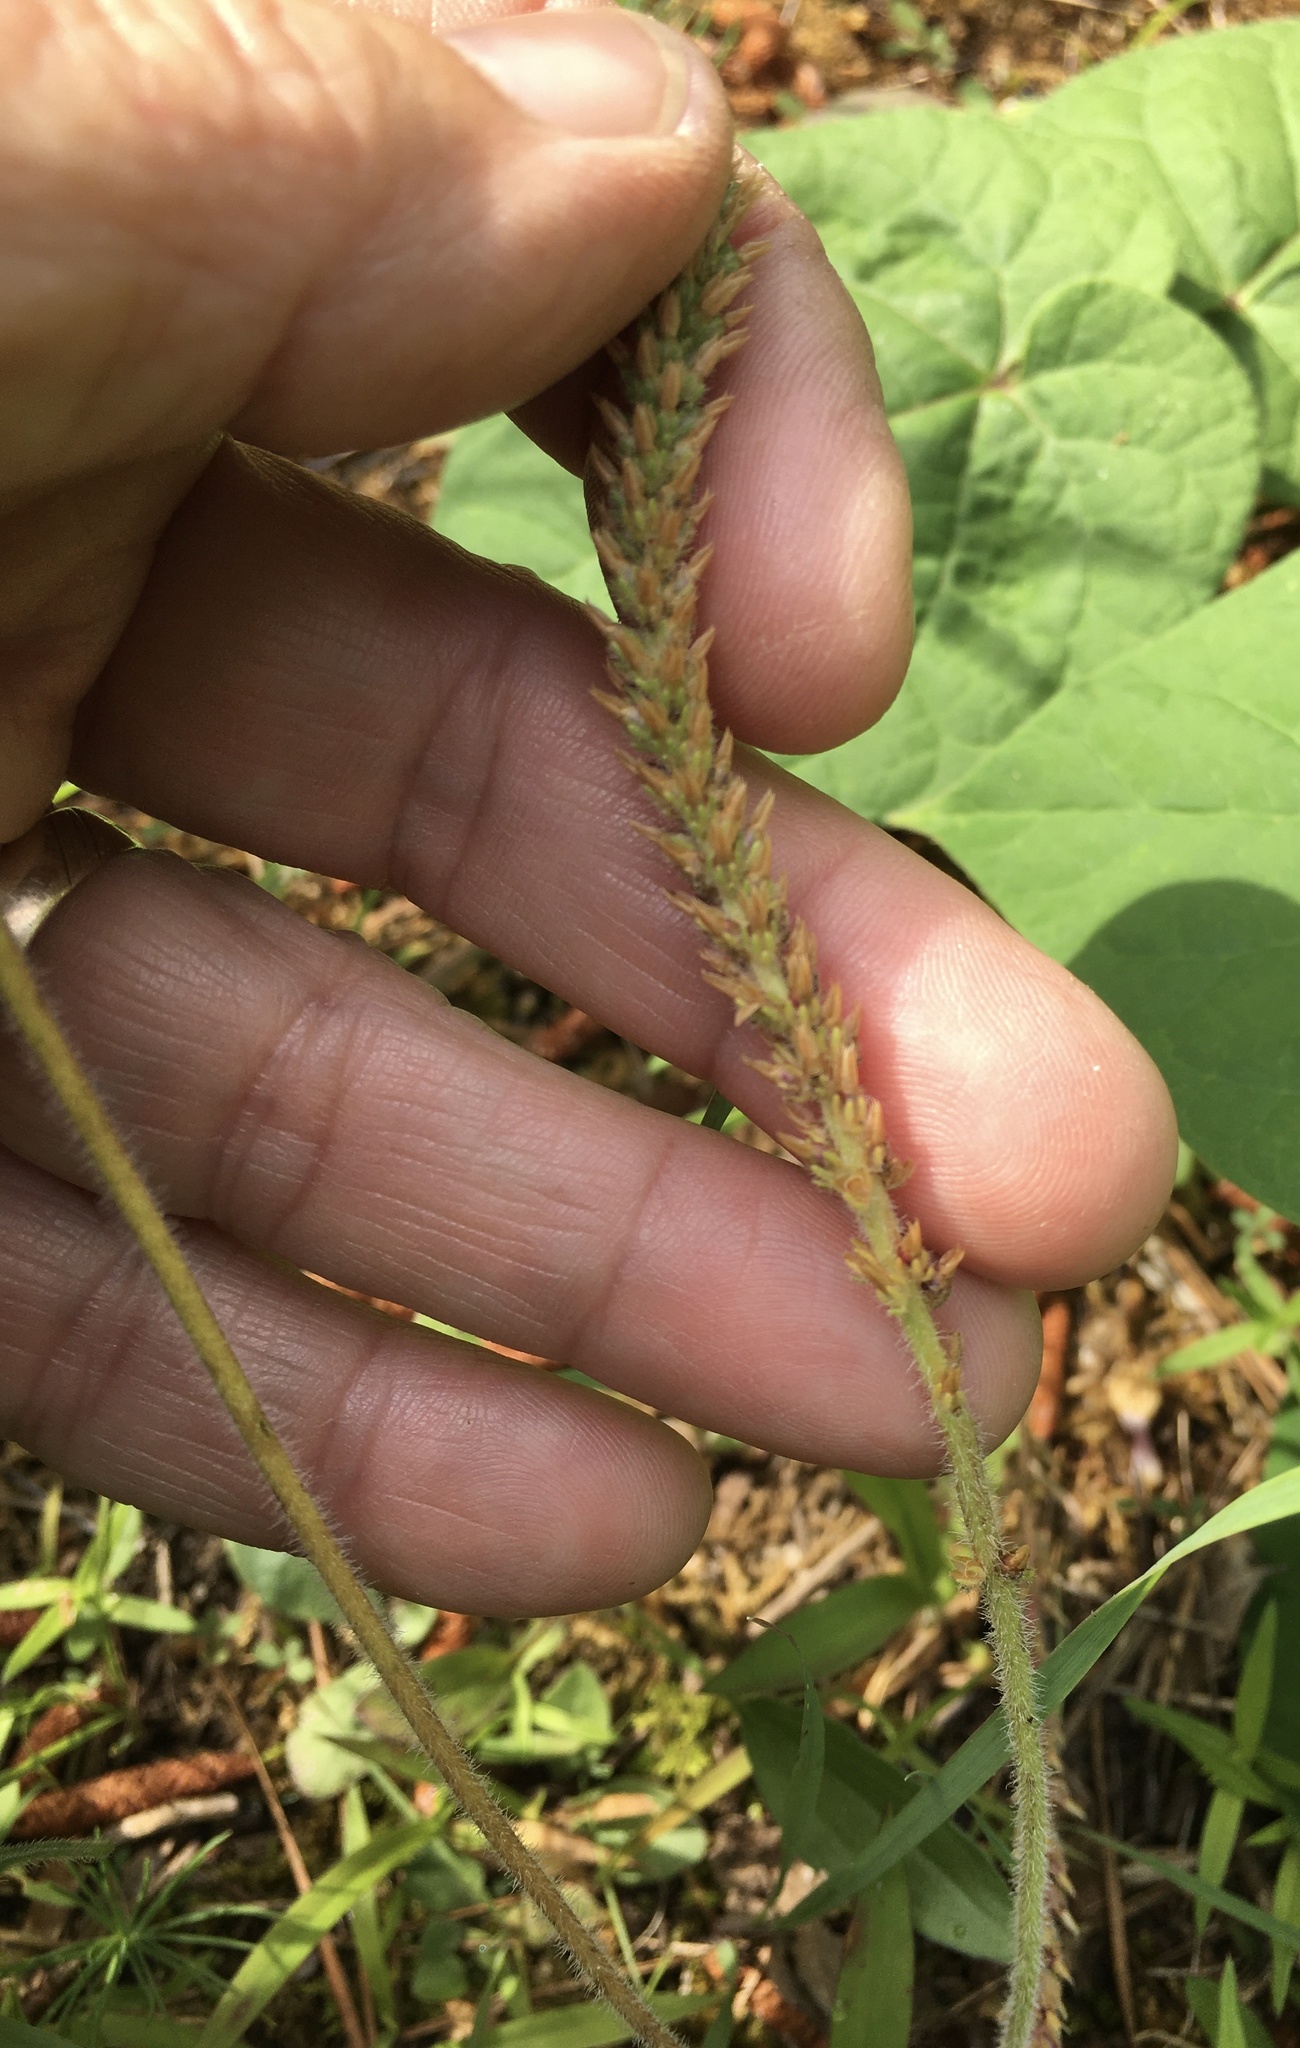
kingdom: Plantae
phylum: Tracheophyta
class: Magnoliopsida
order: Lamiales
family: Plantaginaceae
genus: Plantago
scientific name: Plantago virginica
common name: Hoary plantain
